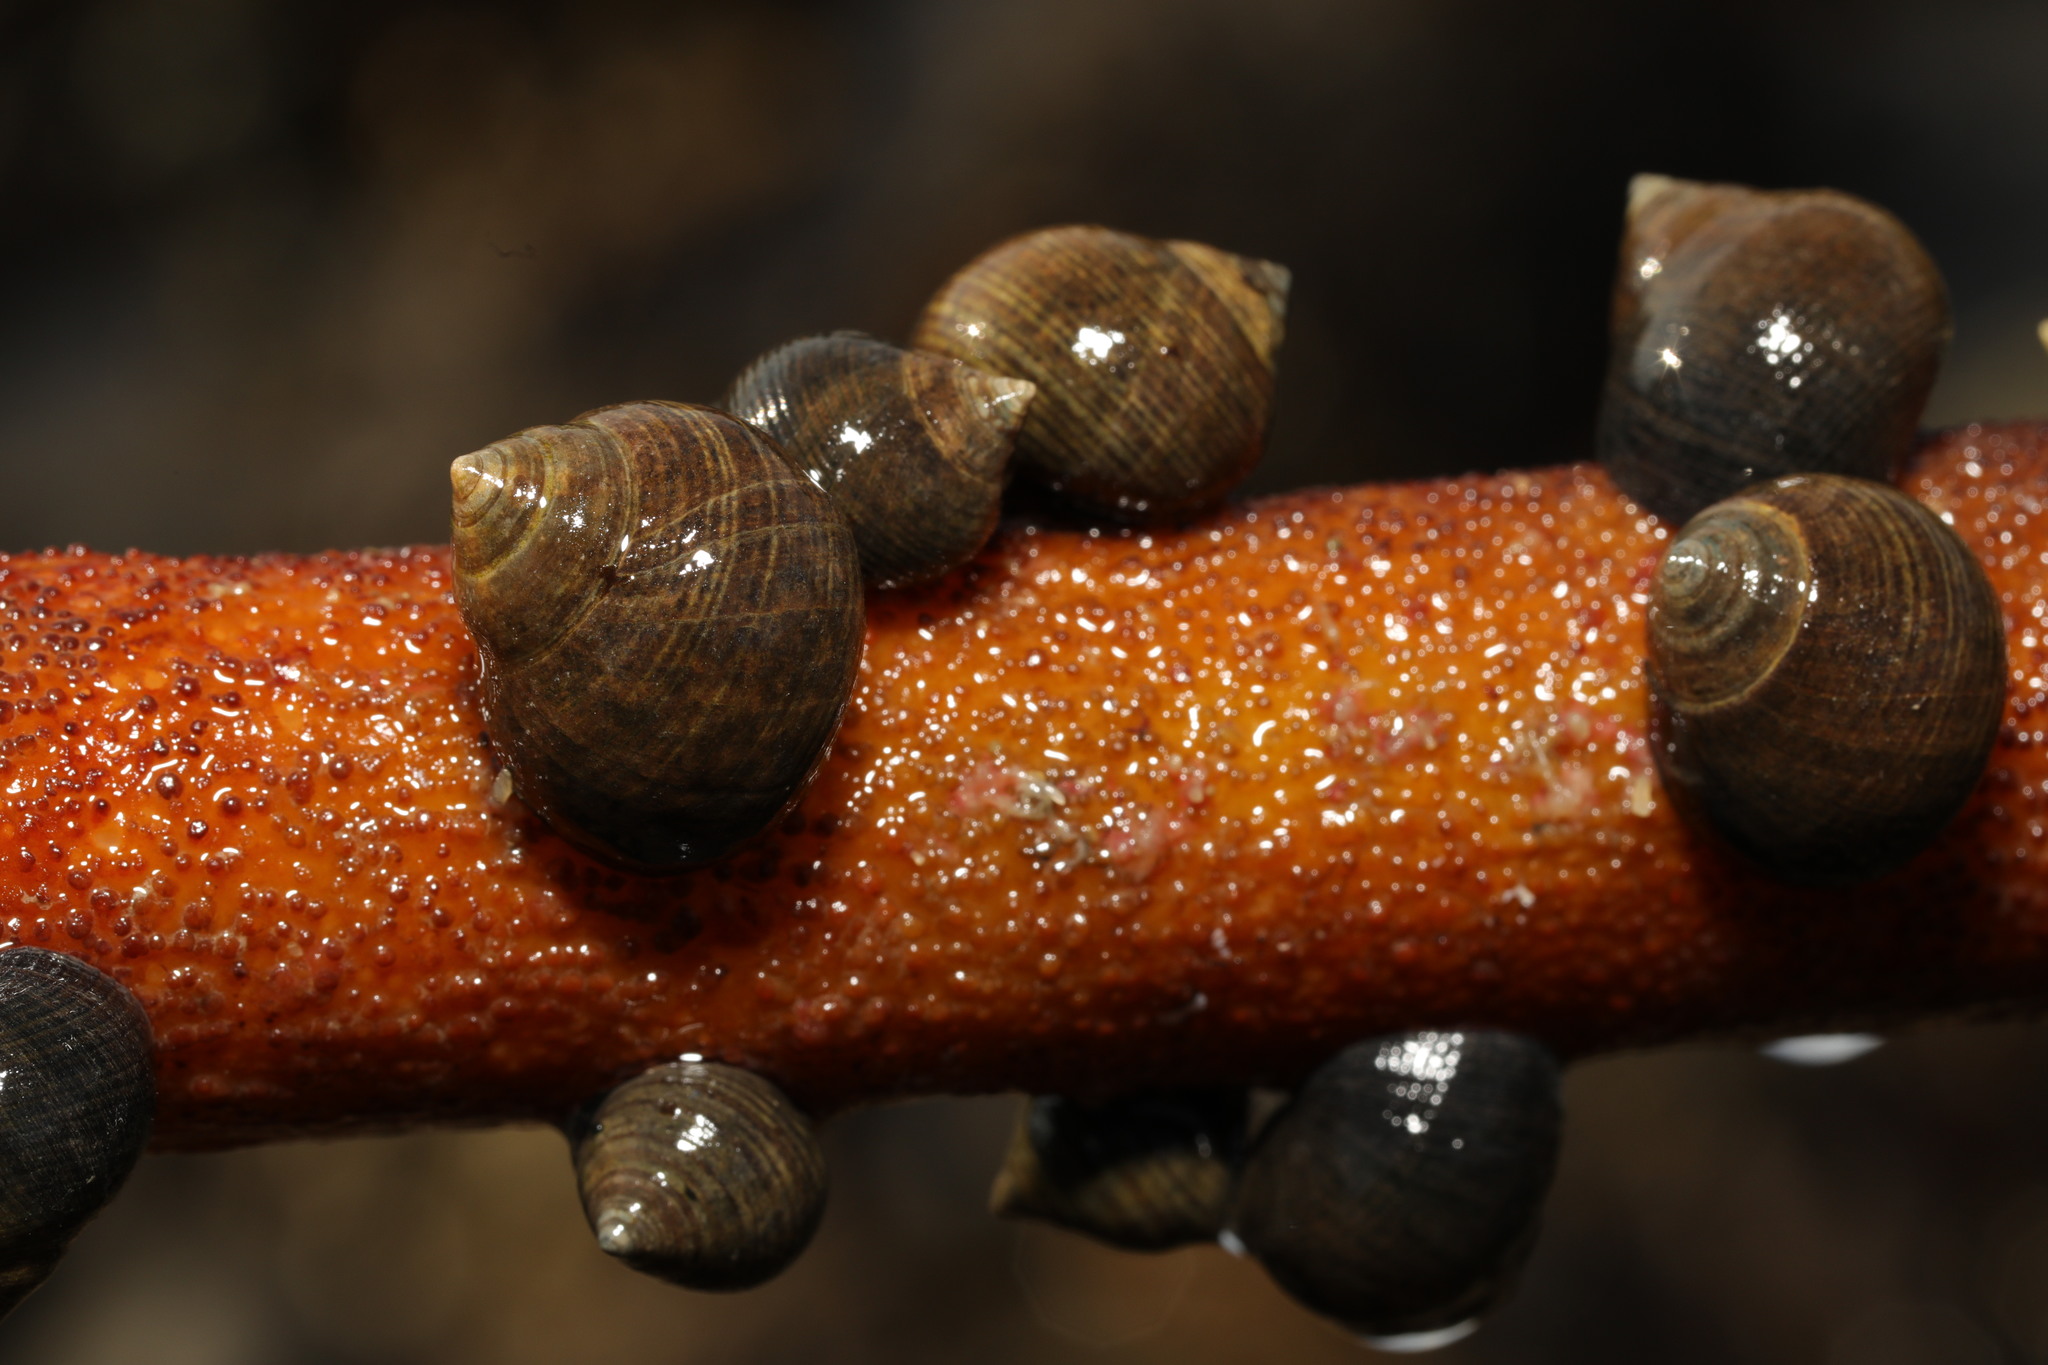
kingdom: Animalia
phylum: Mollusca
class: Gastropoda
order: Littorinimorpha
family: Littorinidae
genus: Littorina
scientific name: Littorina littorea
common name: Common periwinkle
